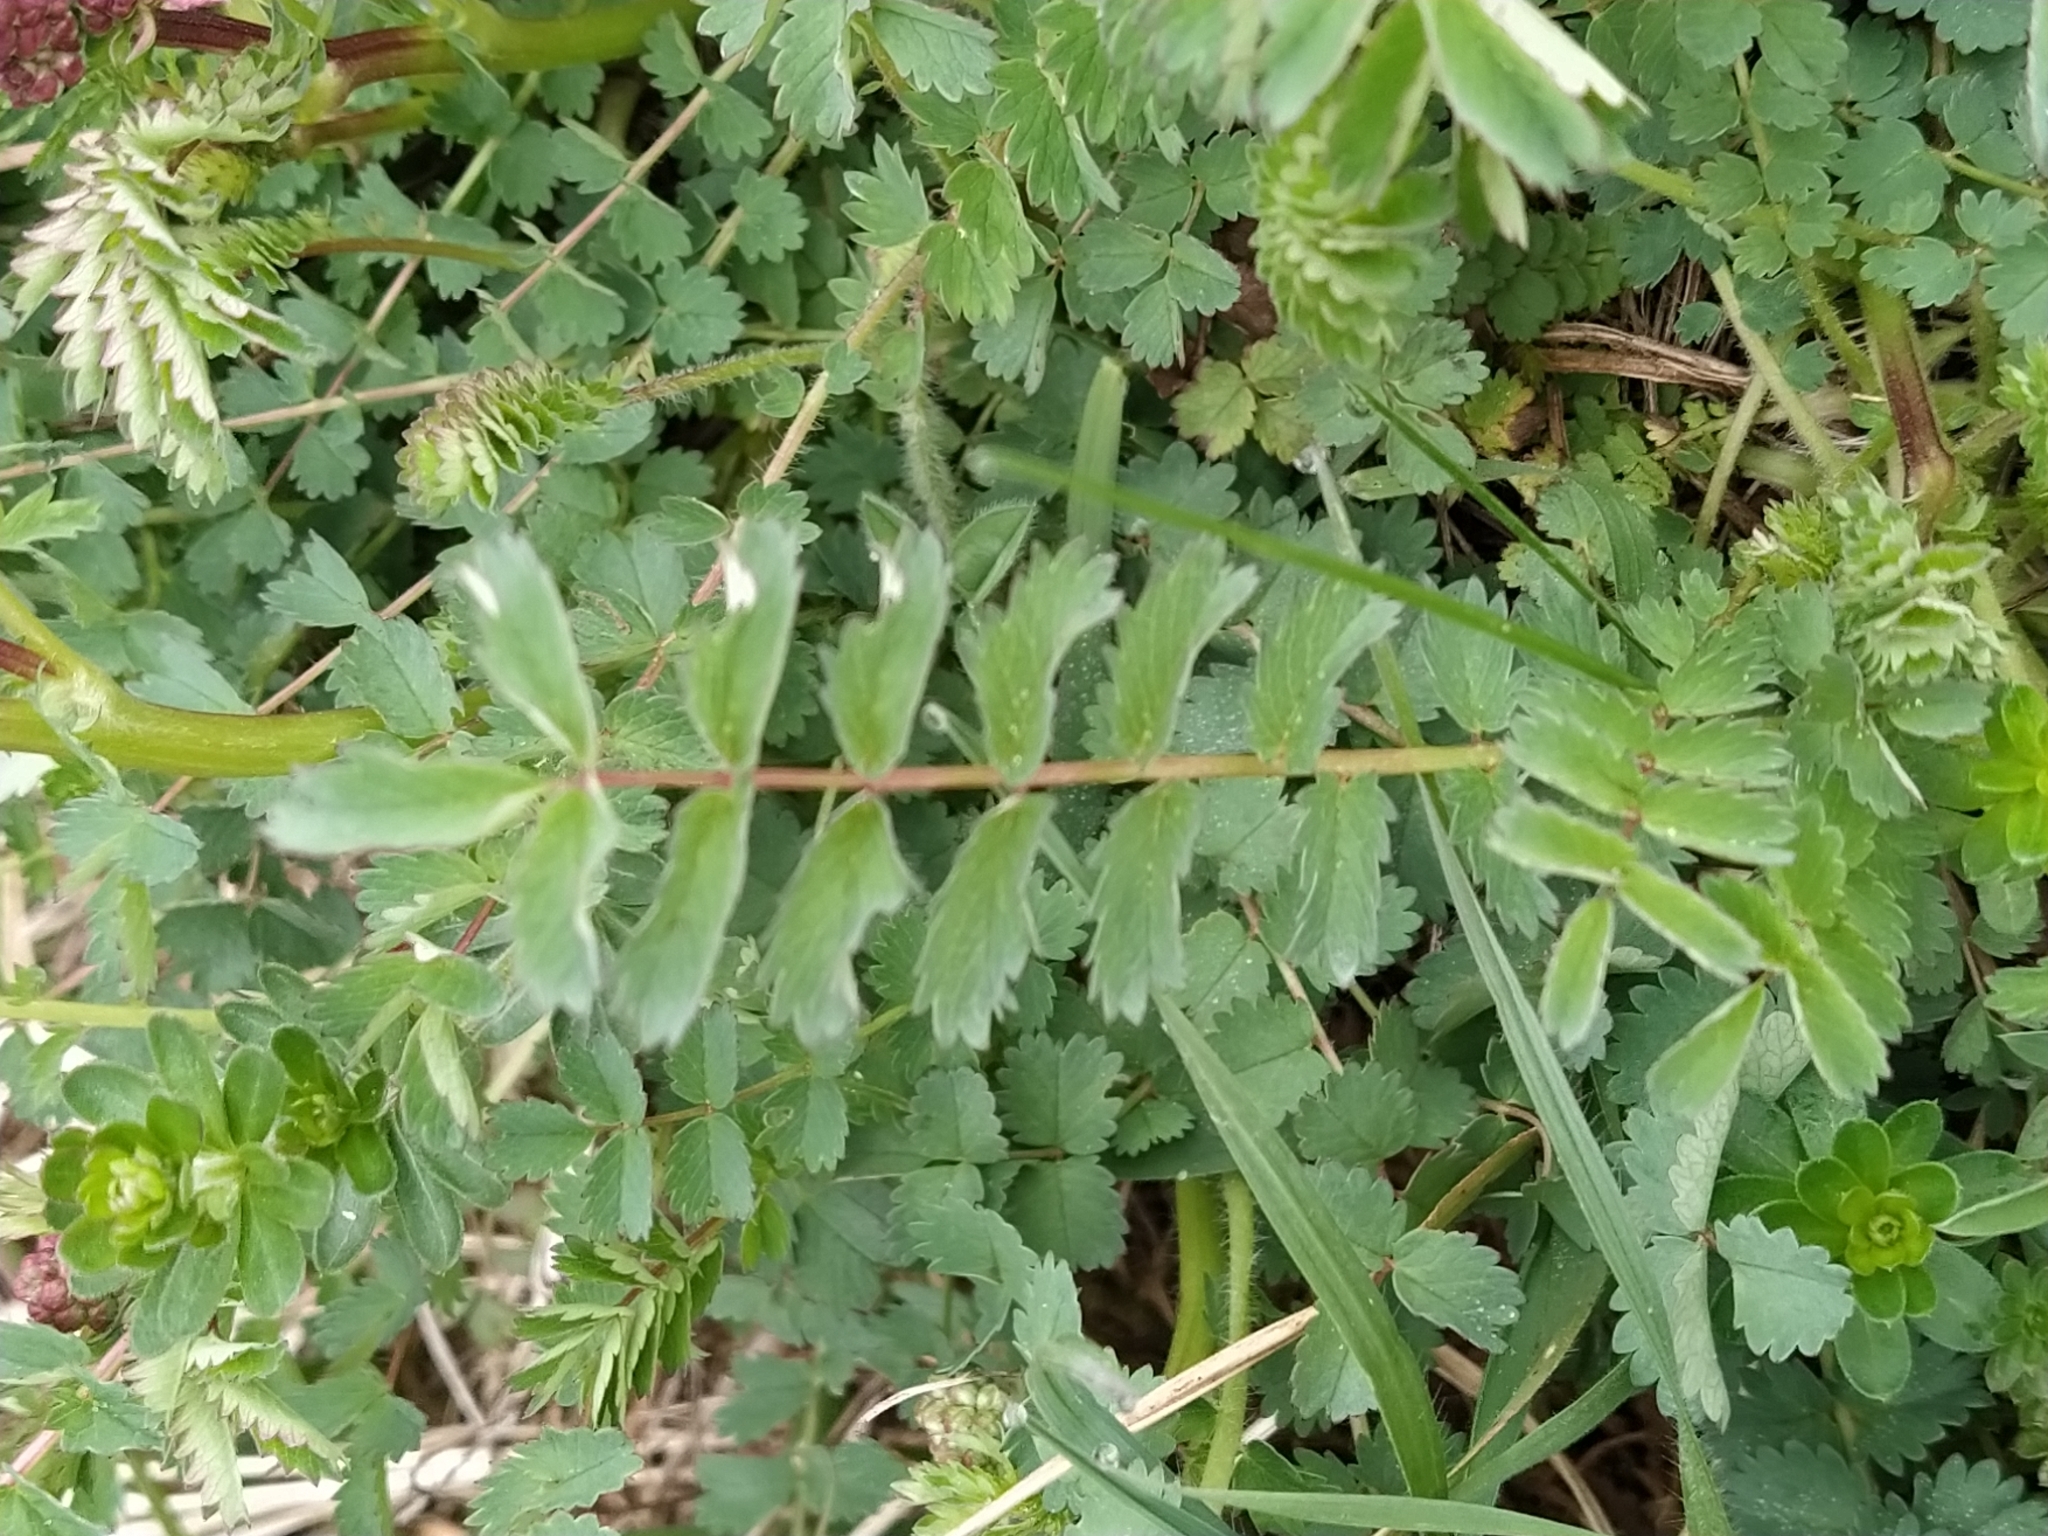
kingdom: Plantae
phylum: Tracheophyta
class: Magnoliopsida
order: Rosales
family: Rosaceae
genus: Poterium
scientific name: Poterium sanguisorba
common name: Salad burnet
